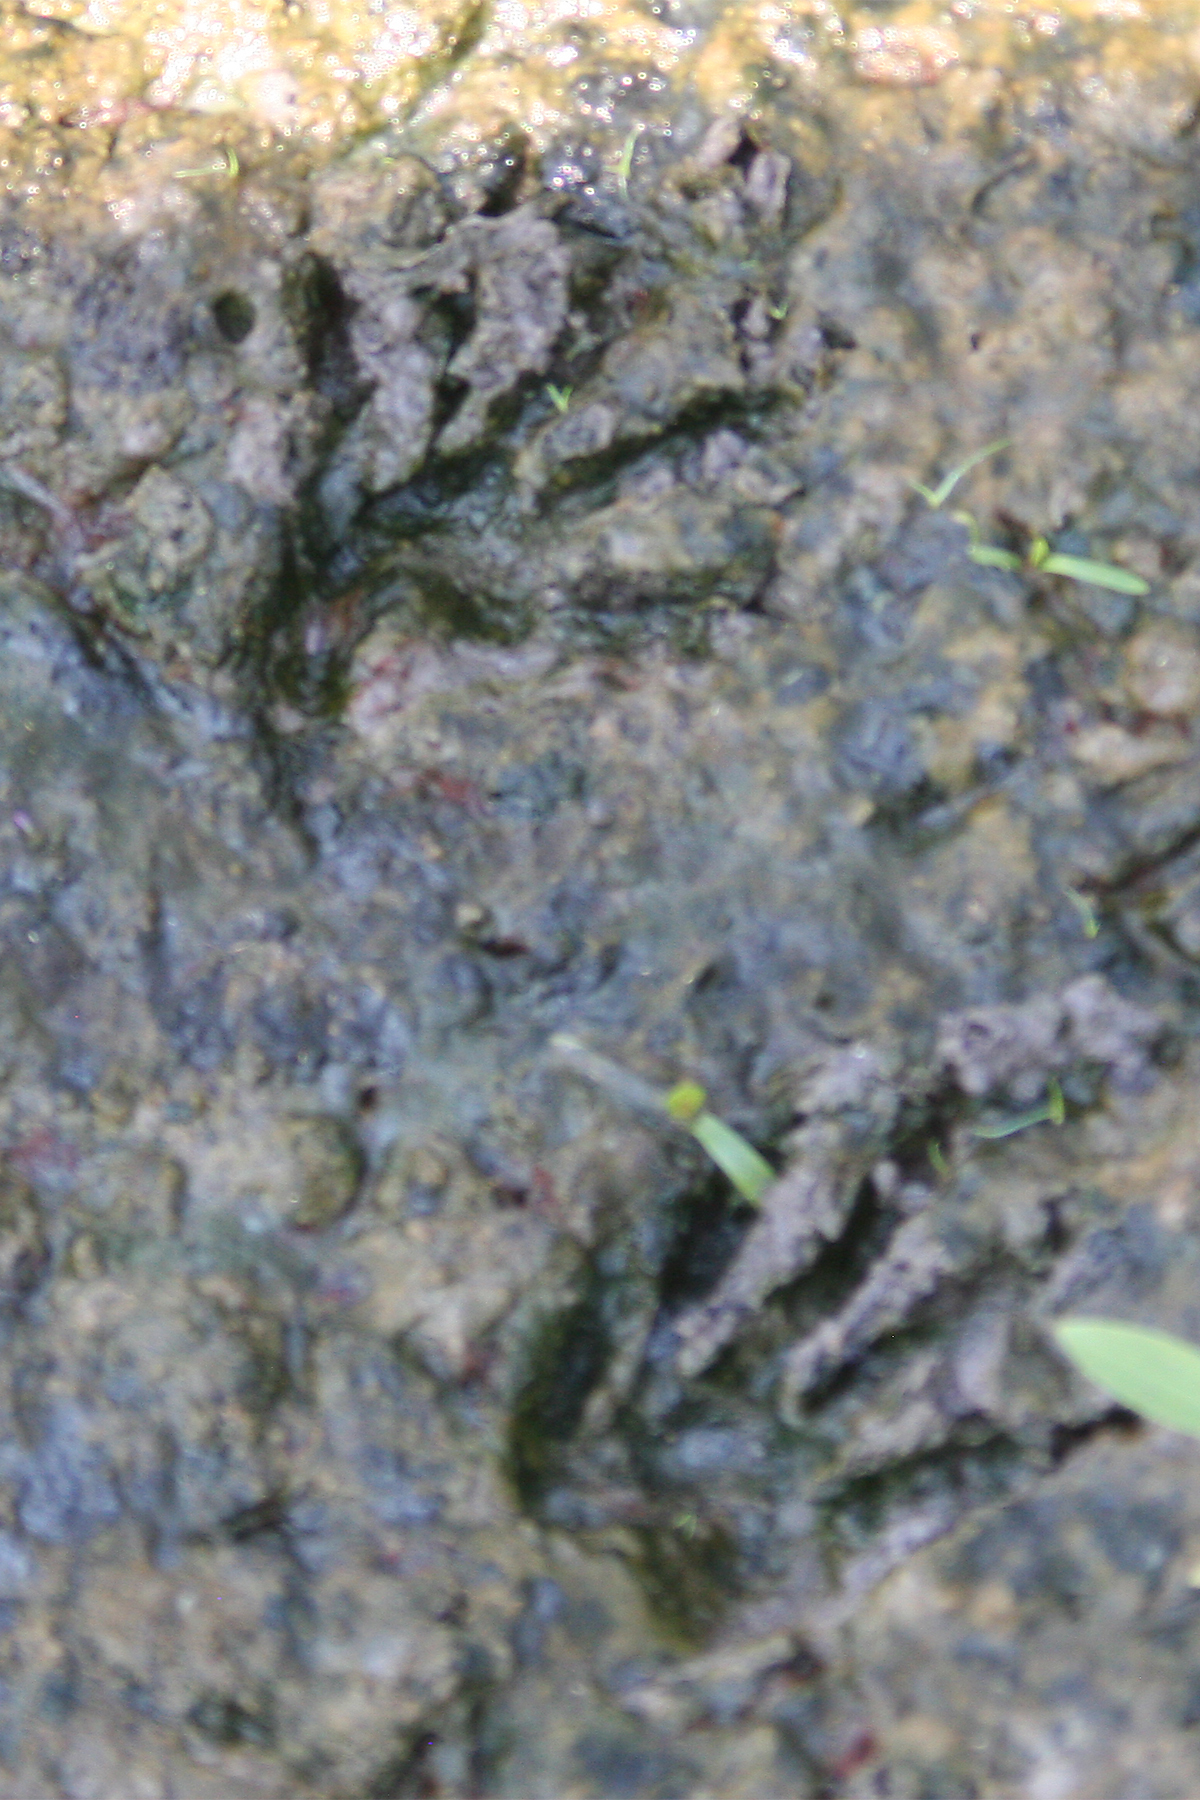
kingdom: Animalia
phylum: Chordata
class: Mammalia
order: Carnivora
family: Procyonidae
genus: Procyon
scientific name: Procyon lotor
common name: Raccoon
